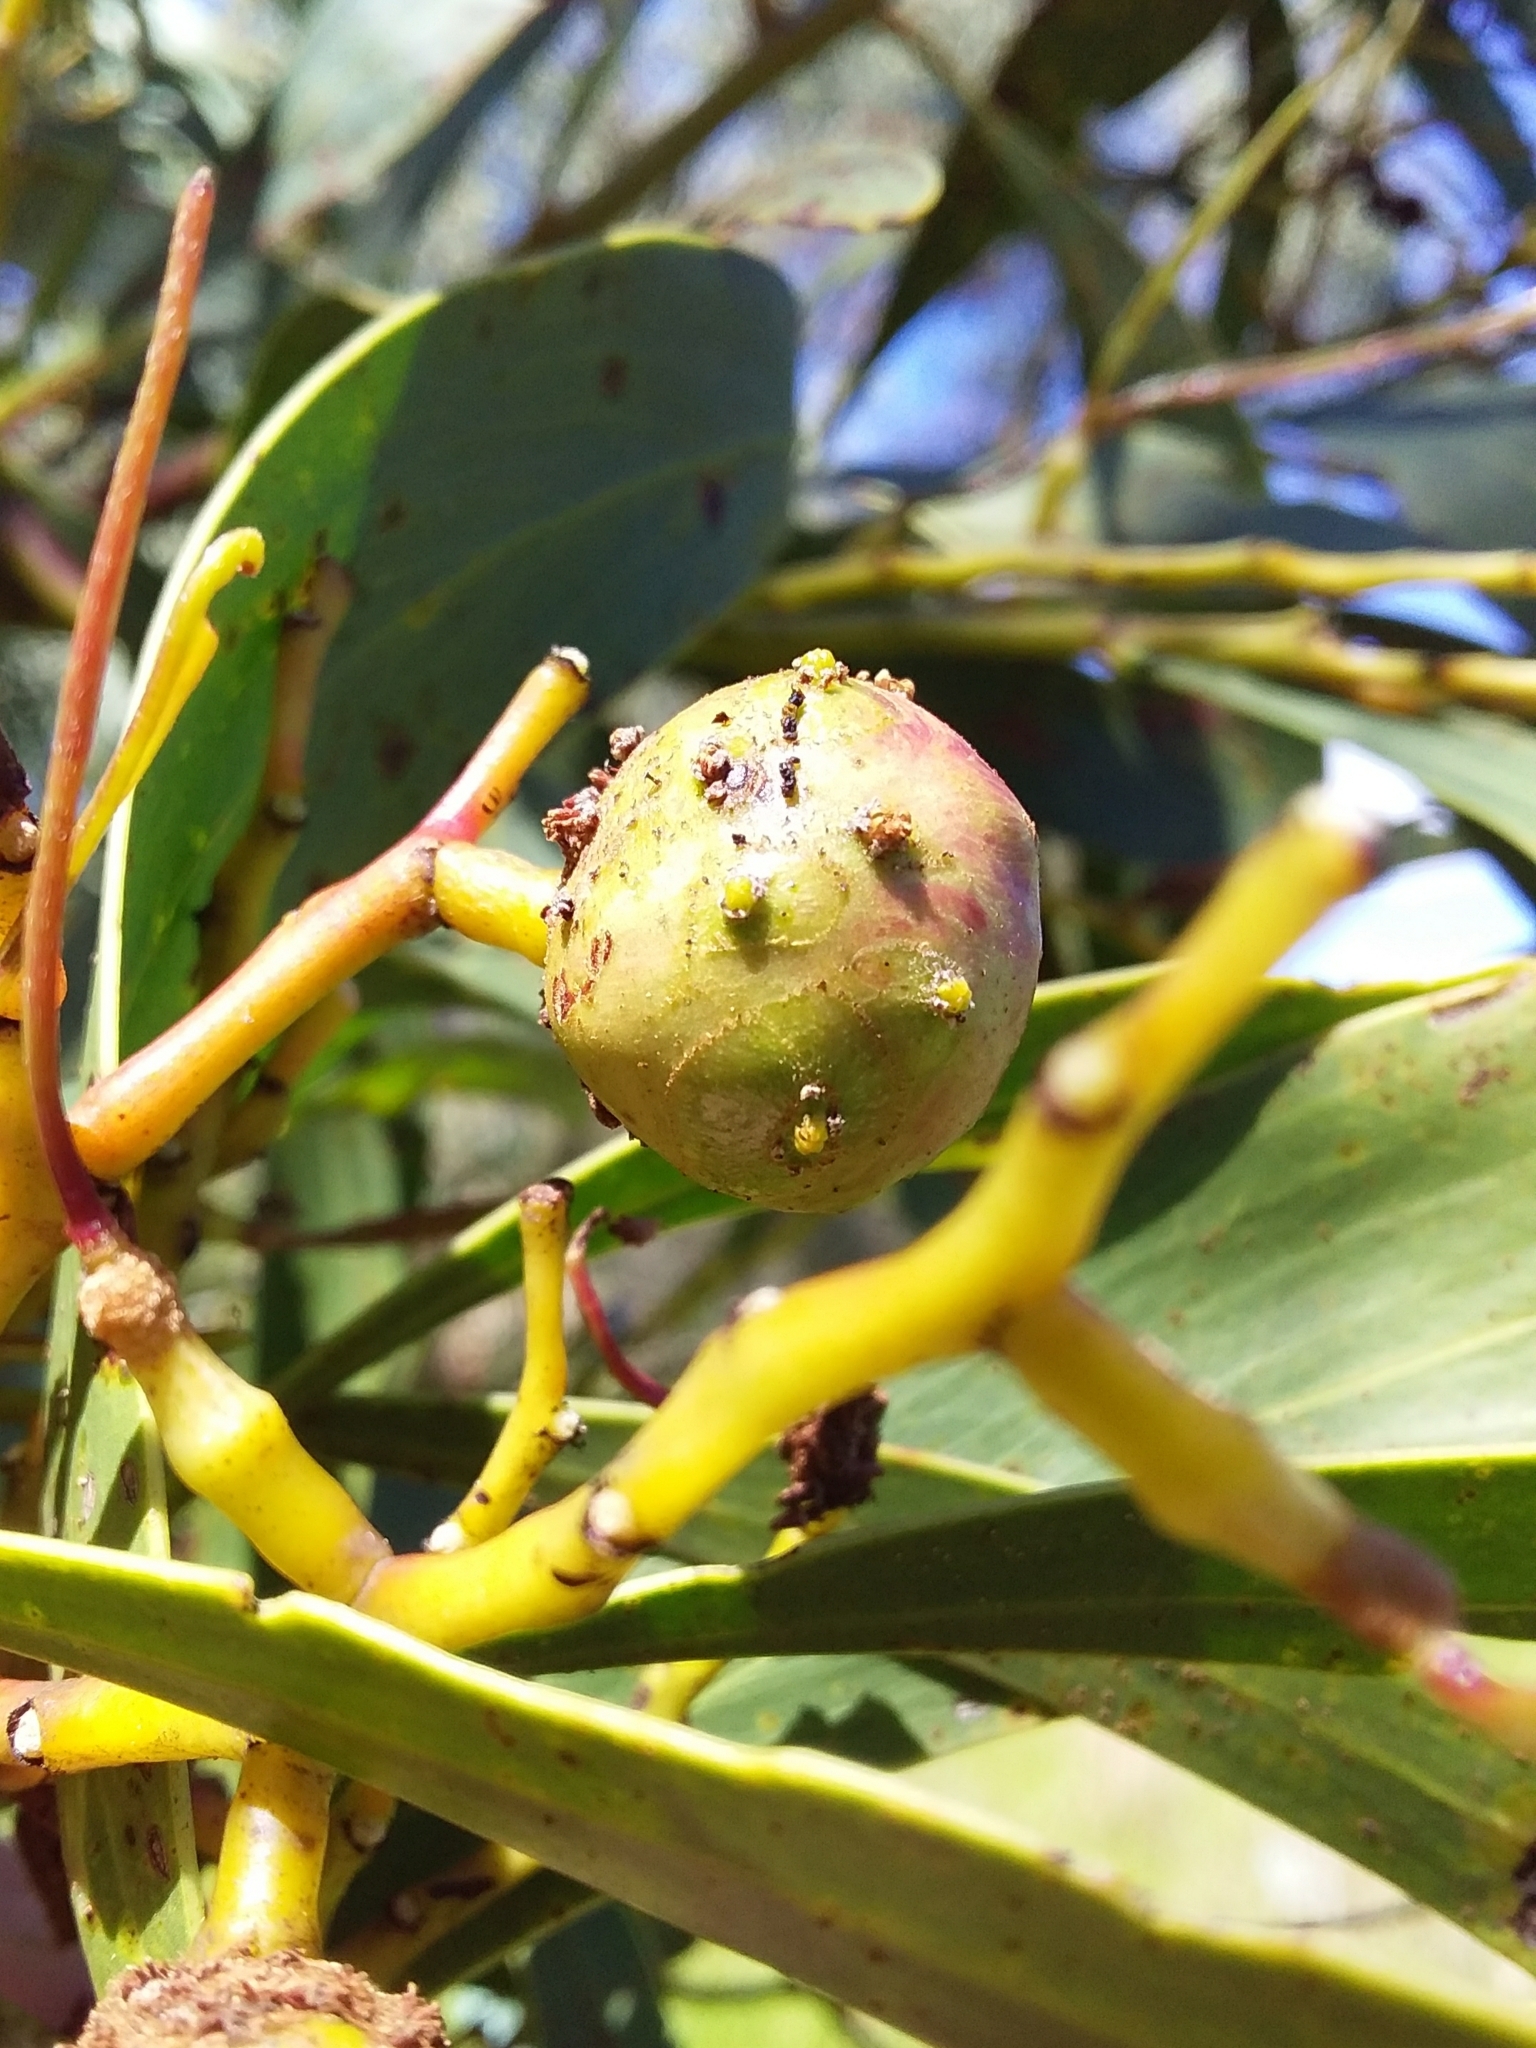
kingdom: Animalia
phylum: Arthropoda
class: Insecta
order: Hymenoptera
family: Pteromalidae
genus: Trichilogaster
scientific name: Trichilogaster signiventris
